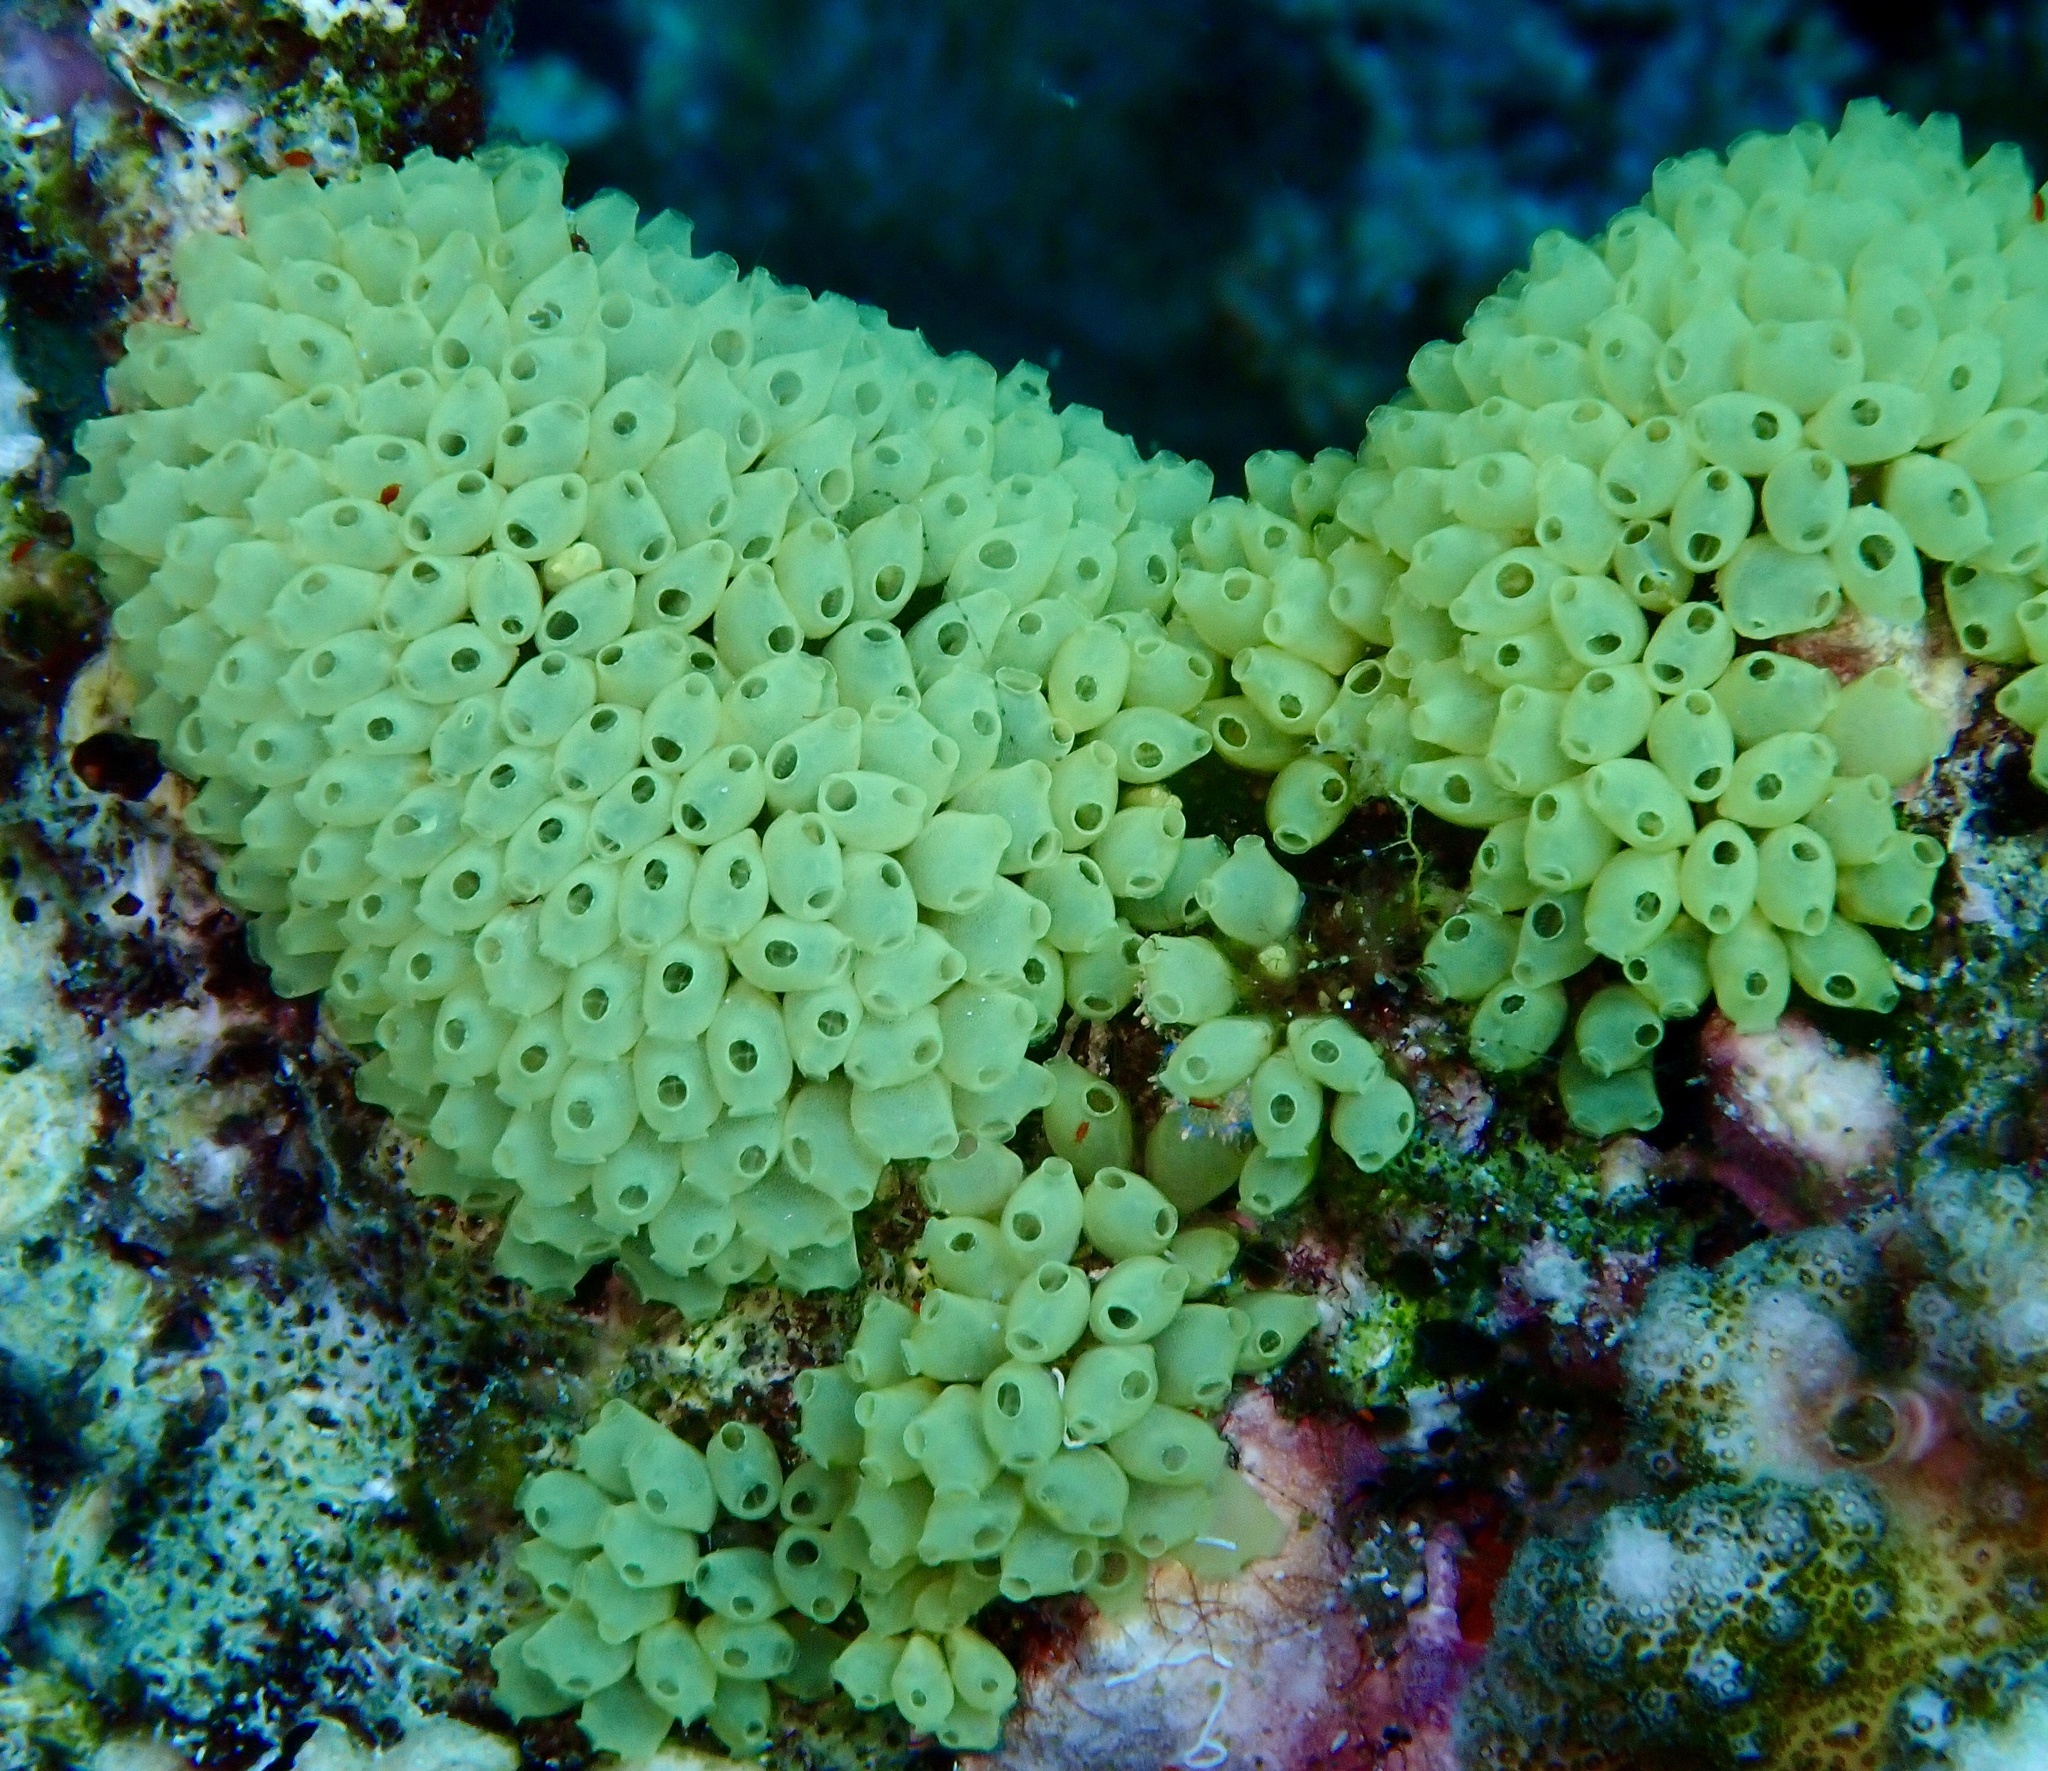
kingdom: Animalia
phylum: Chordata
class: Ascidiacea
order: Phlebobranchia
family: Perophoridae
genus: Perophora
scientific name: Perophora modificata
